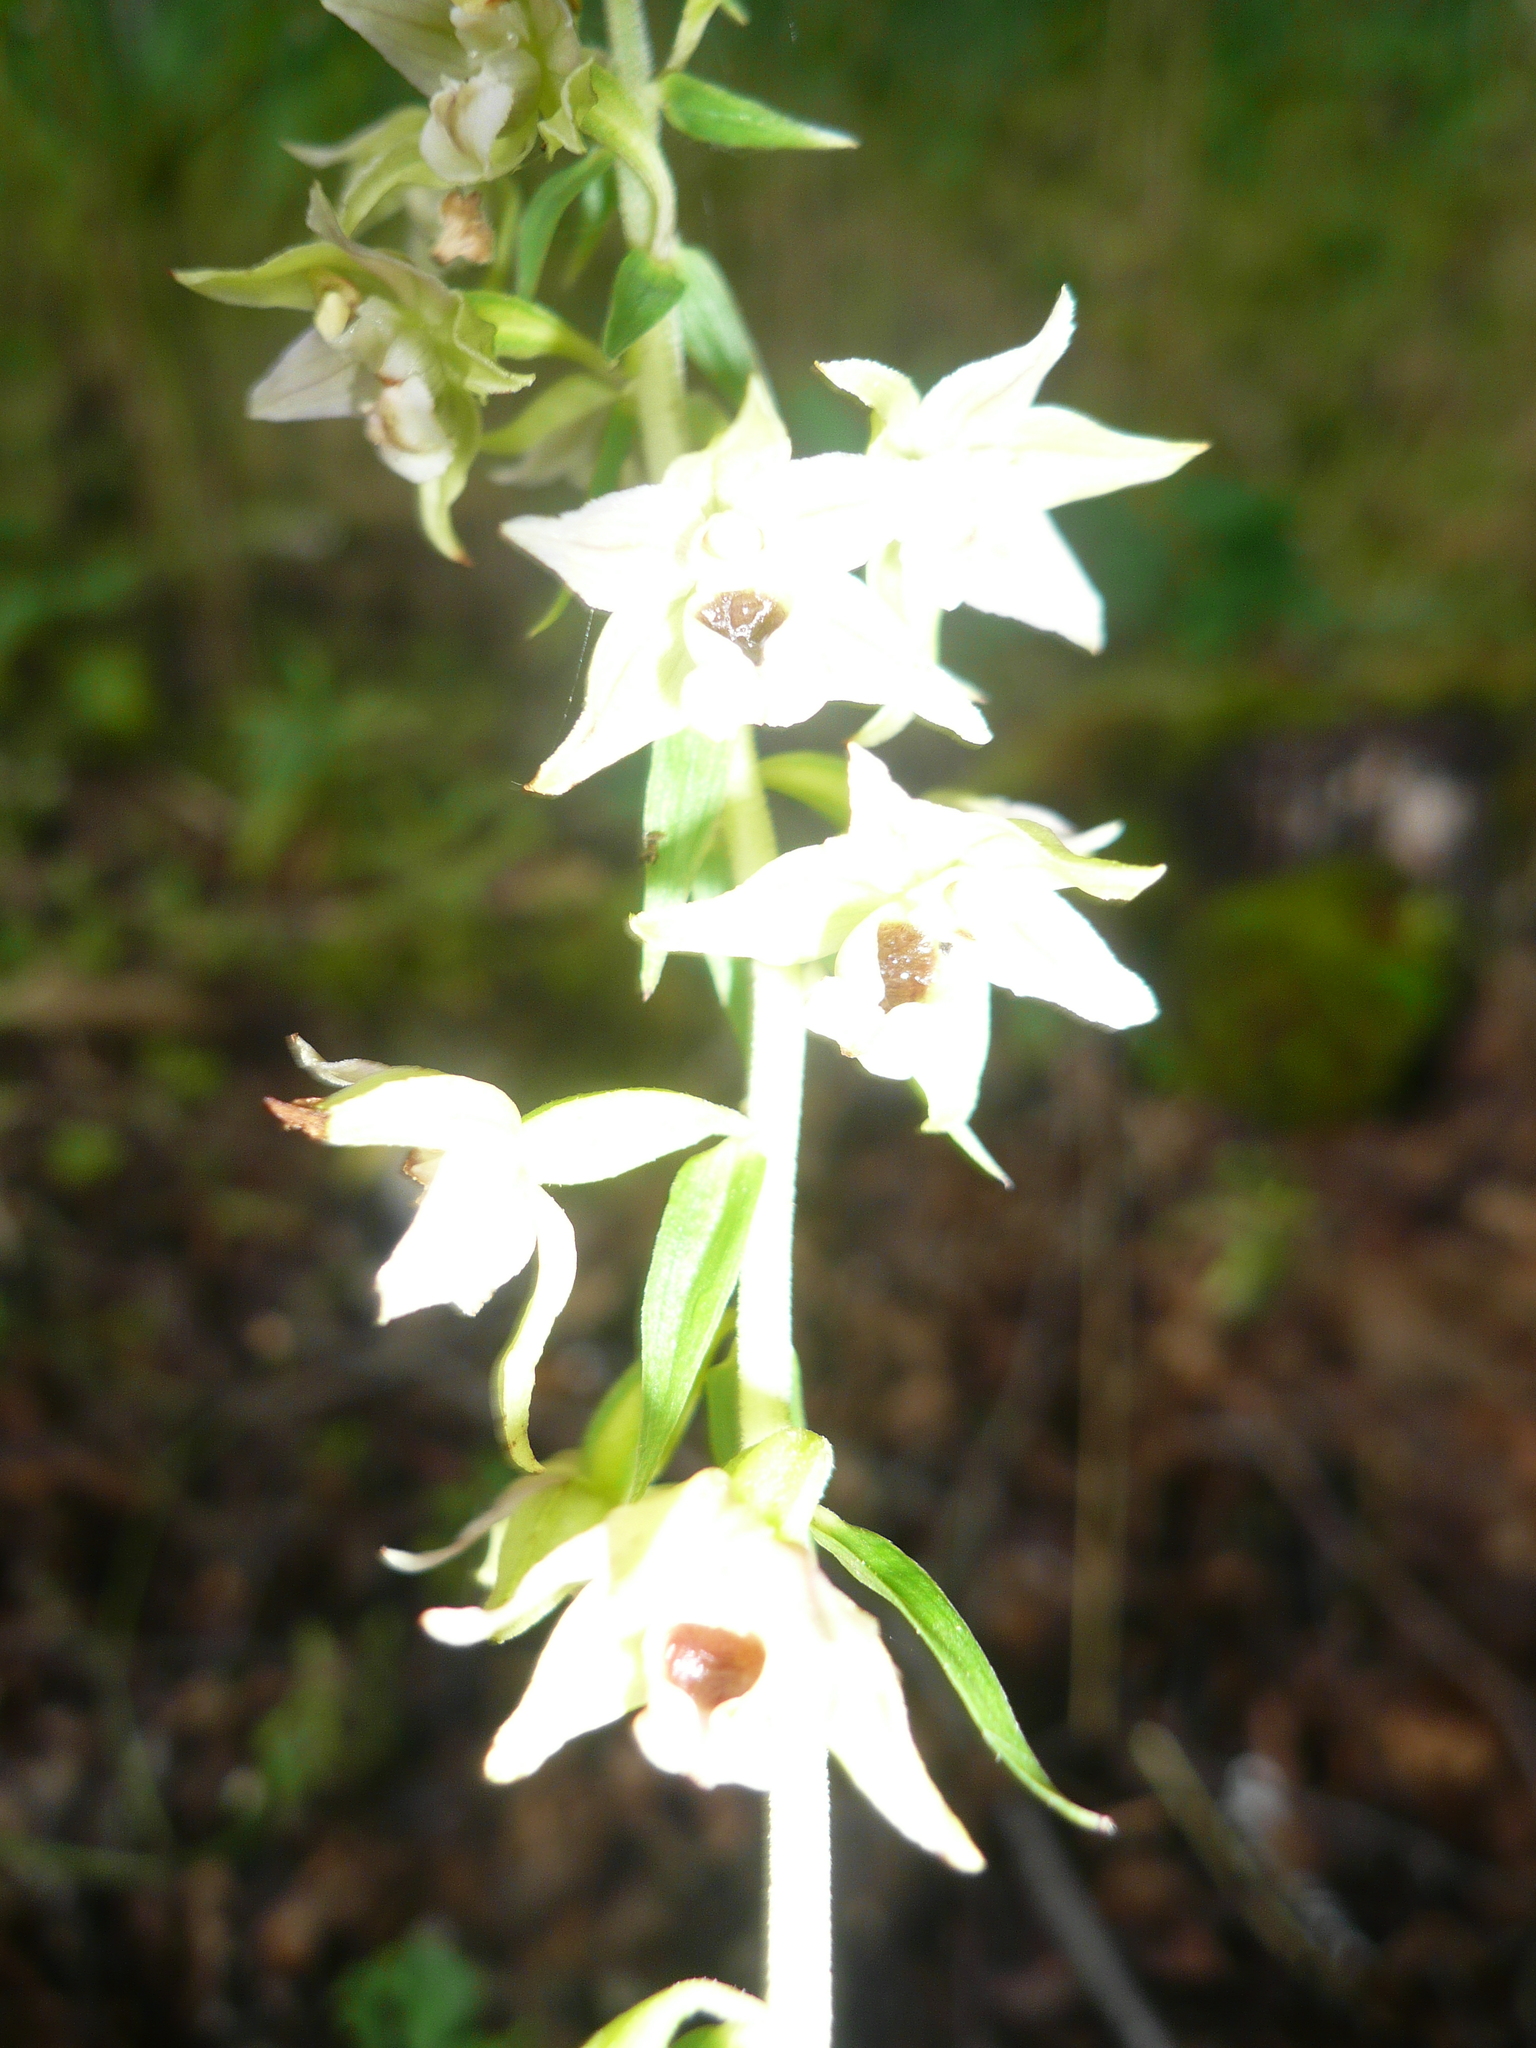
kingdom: Plantae
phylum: Tracheophyta
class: Liliopsida
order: Asparagales
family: Orchidaceae
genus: Epipactis
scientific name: Epipactis helleborine
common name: Broad-leaved helleborine
